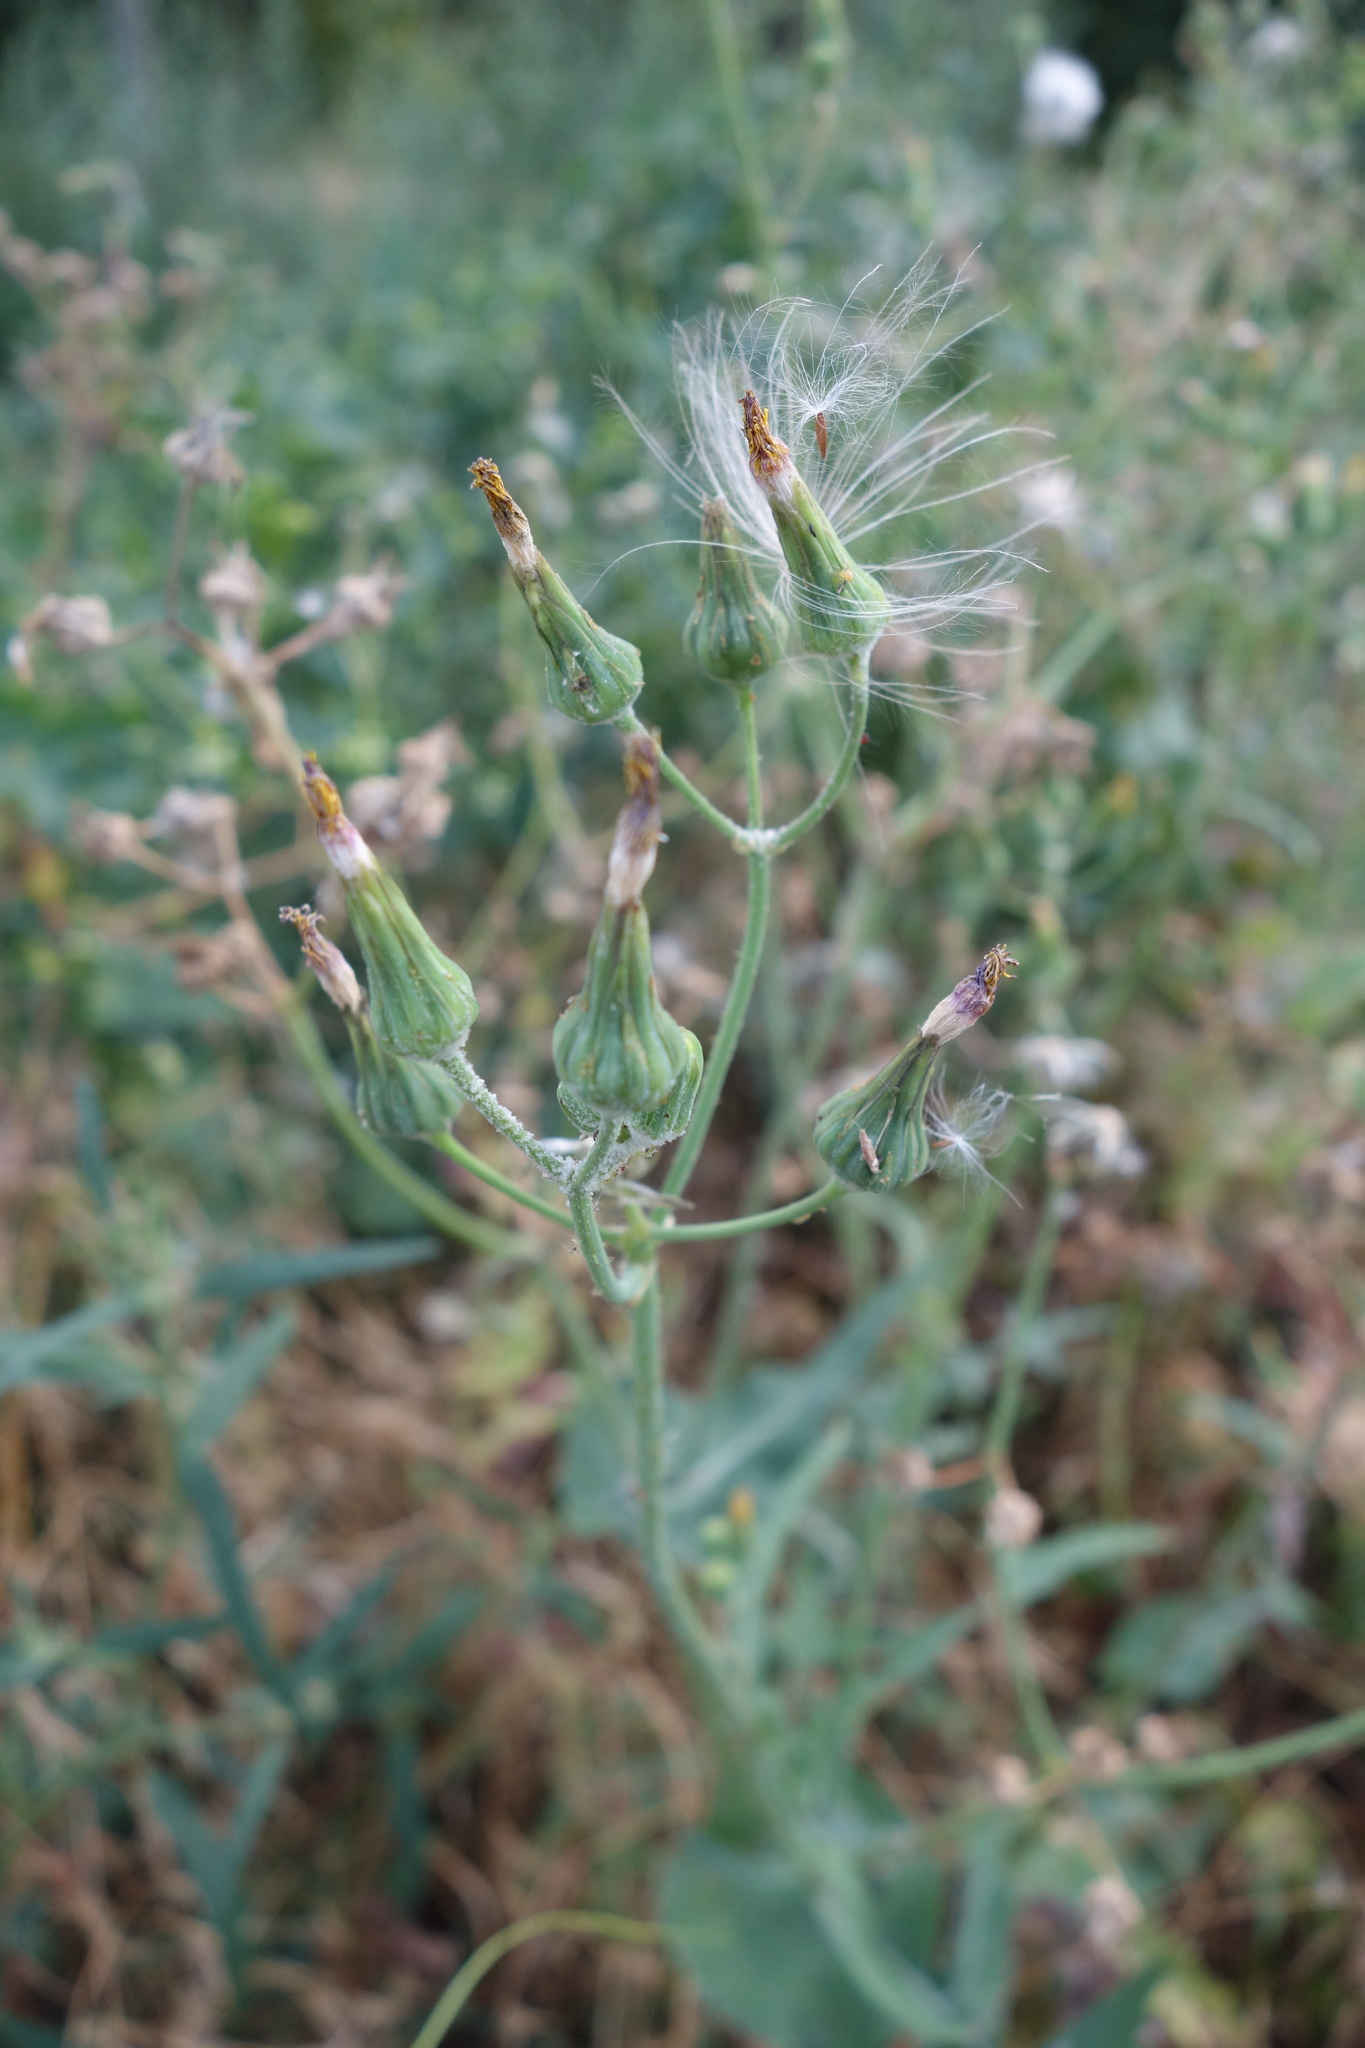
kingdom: Plantae
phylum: Tracheophyta
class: Magnoliopsida
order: Asterales
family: Asteraceae
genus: Sonchus
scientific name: Sonchus oleraceus
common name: Common sowthistle
